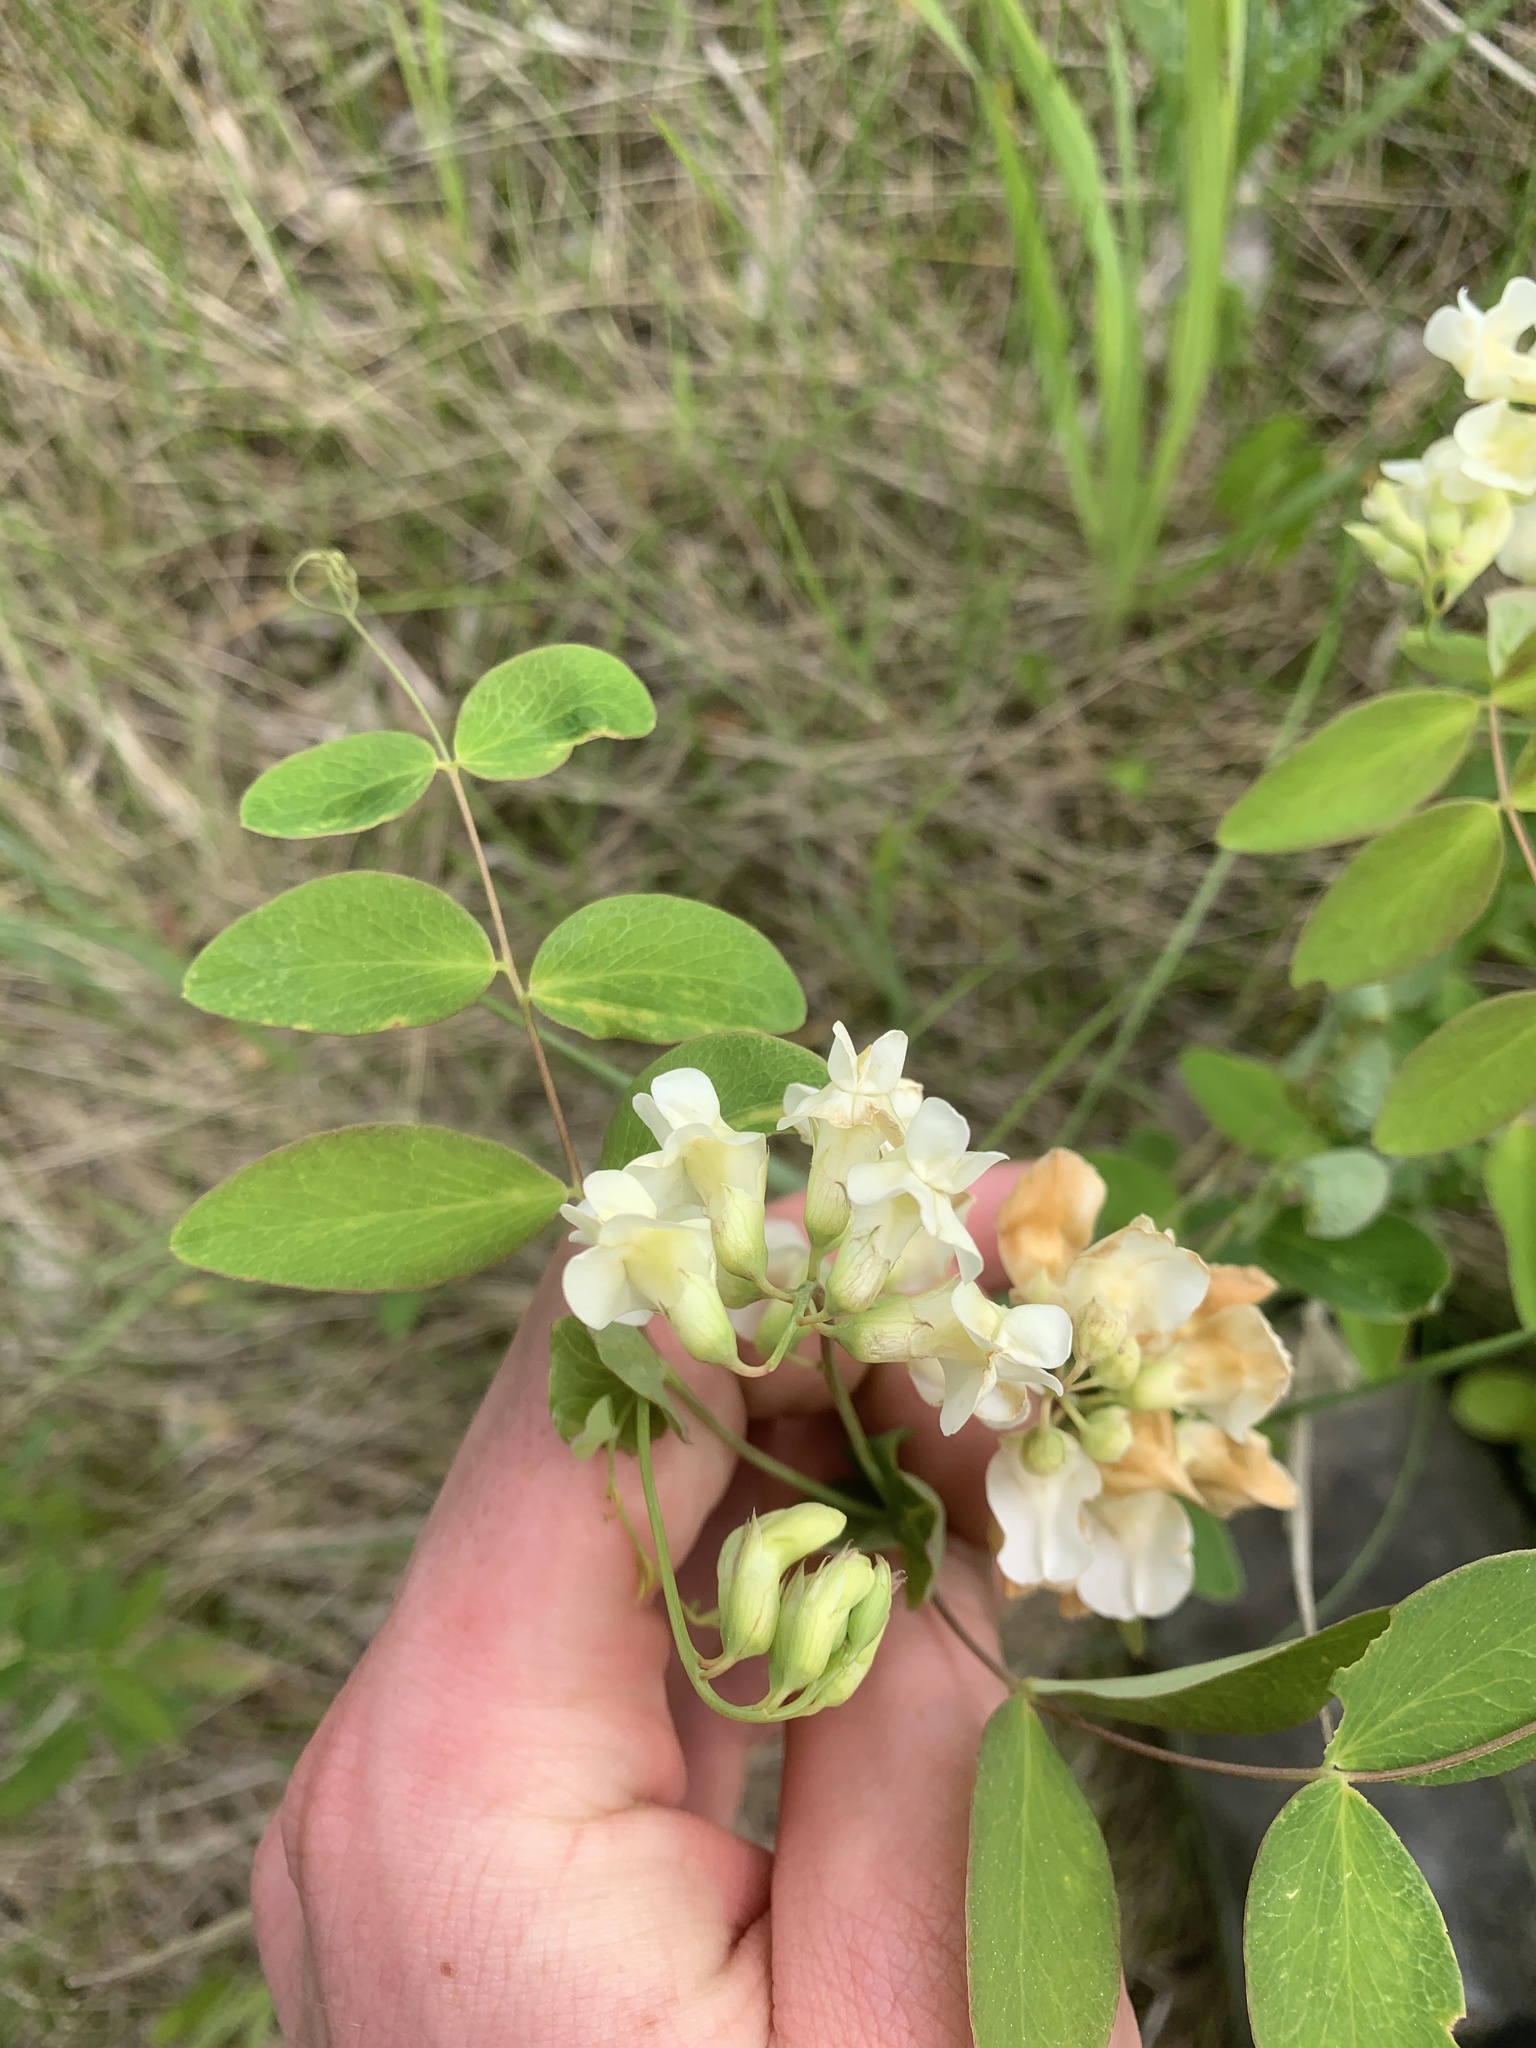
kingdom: Plantae
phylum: Tracheophyta
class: Magnoliopsida
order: Fabales
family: Fabaceae
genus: Lathyrus
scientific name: Lathyrus ochroleucus
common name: Pale vetchling
